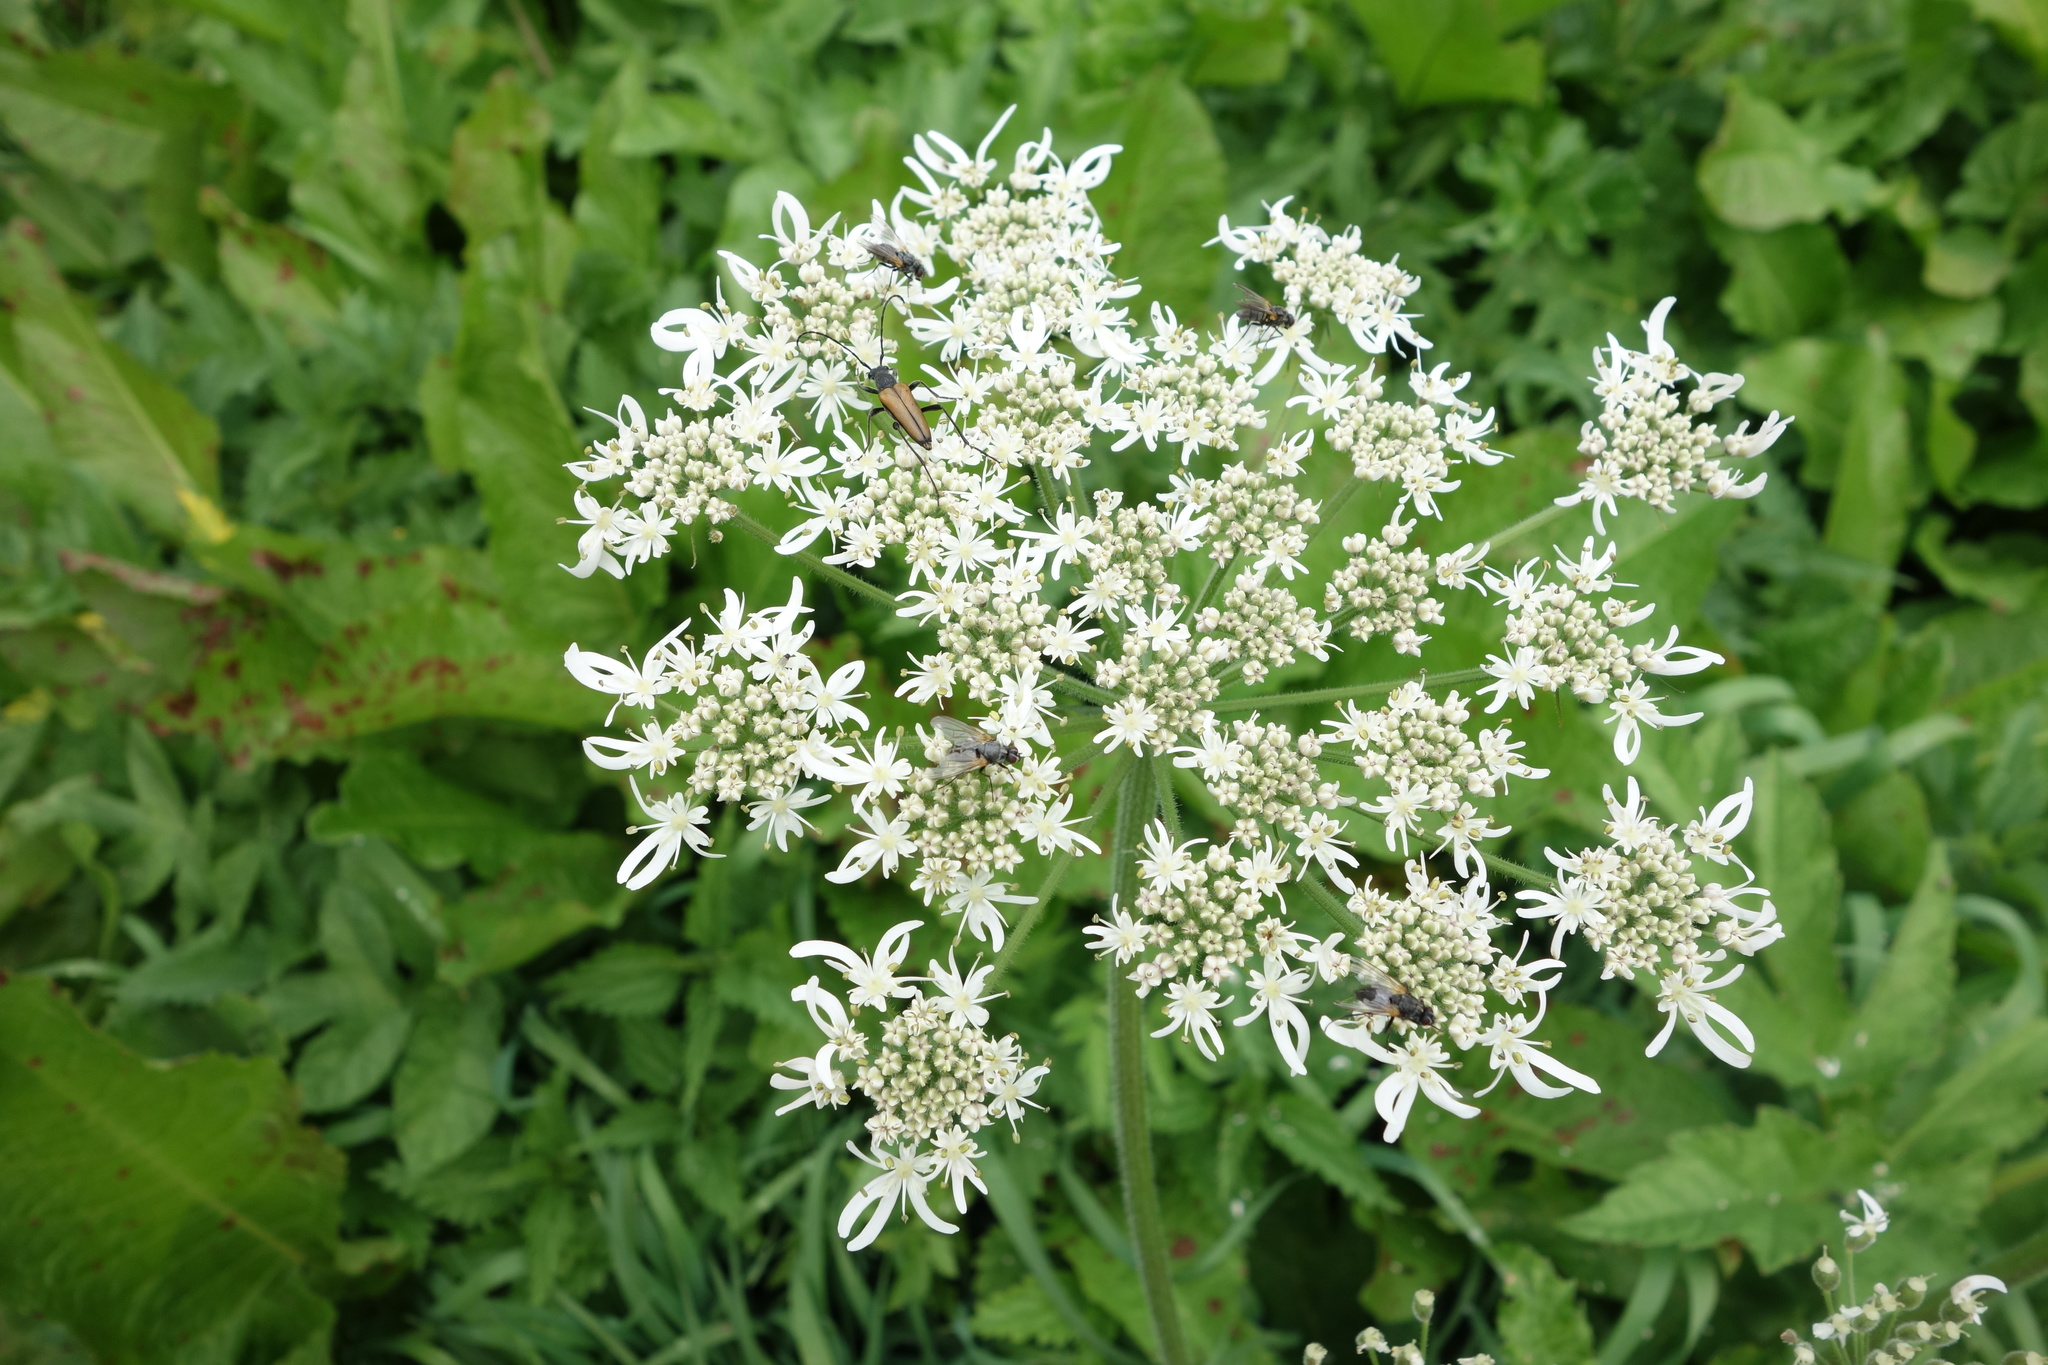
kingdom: Animalia
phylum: Arthropoda
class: Insecta
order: Coleoptera
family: Cerambycidae
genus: Anastrangalia
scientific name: Anastrangalia dubia
